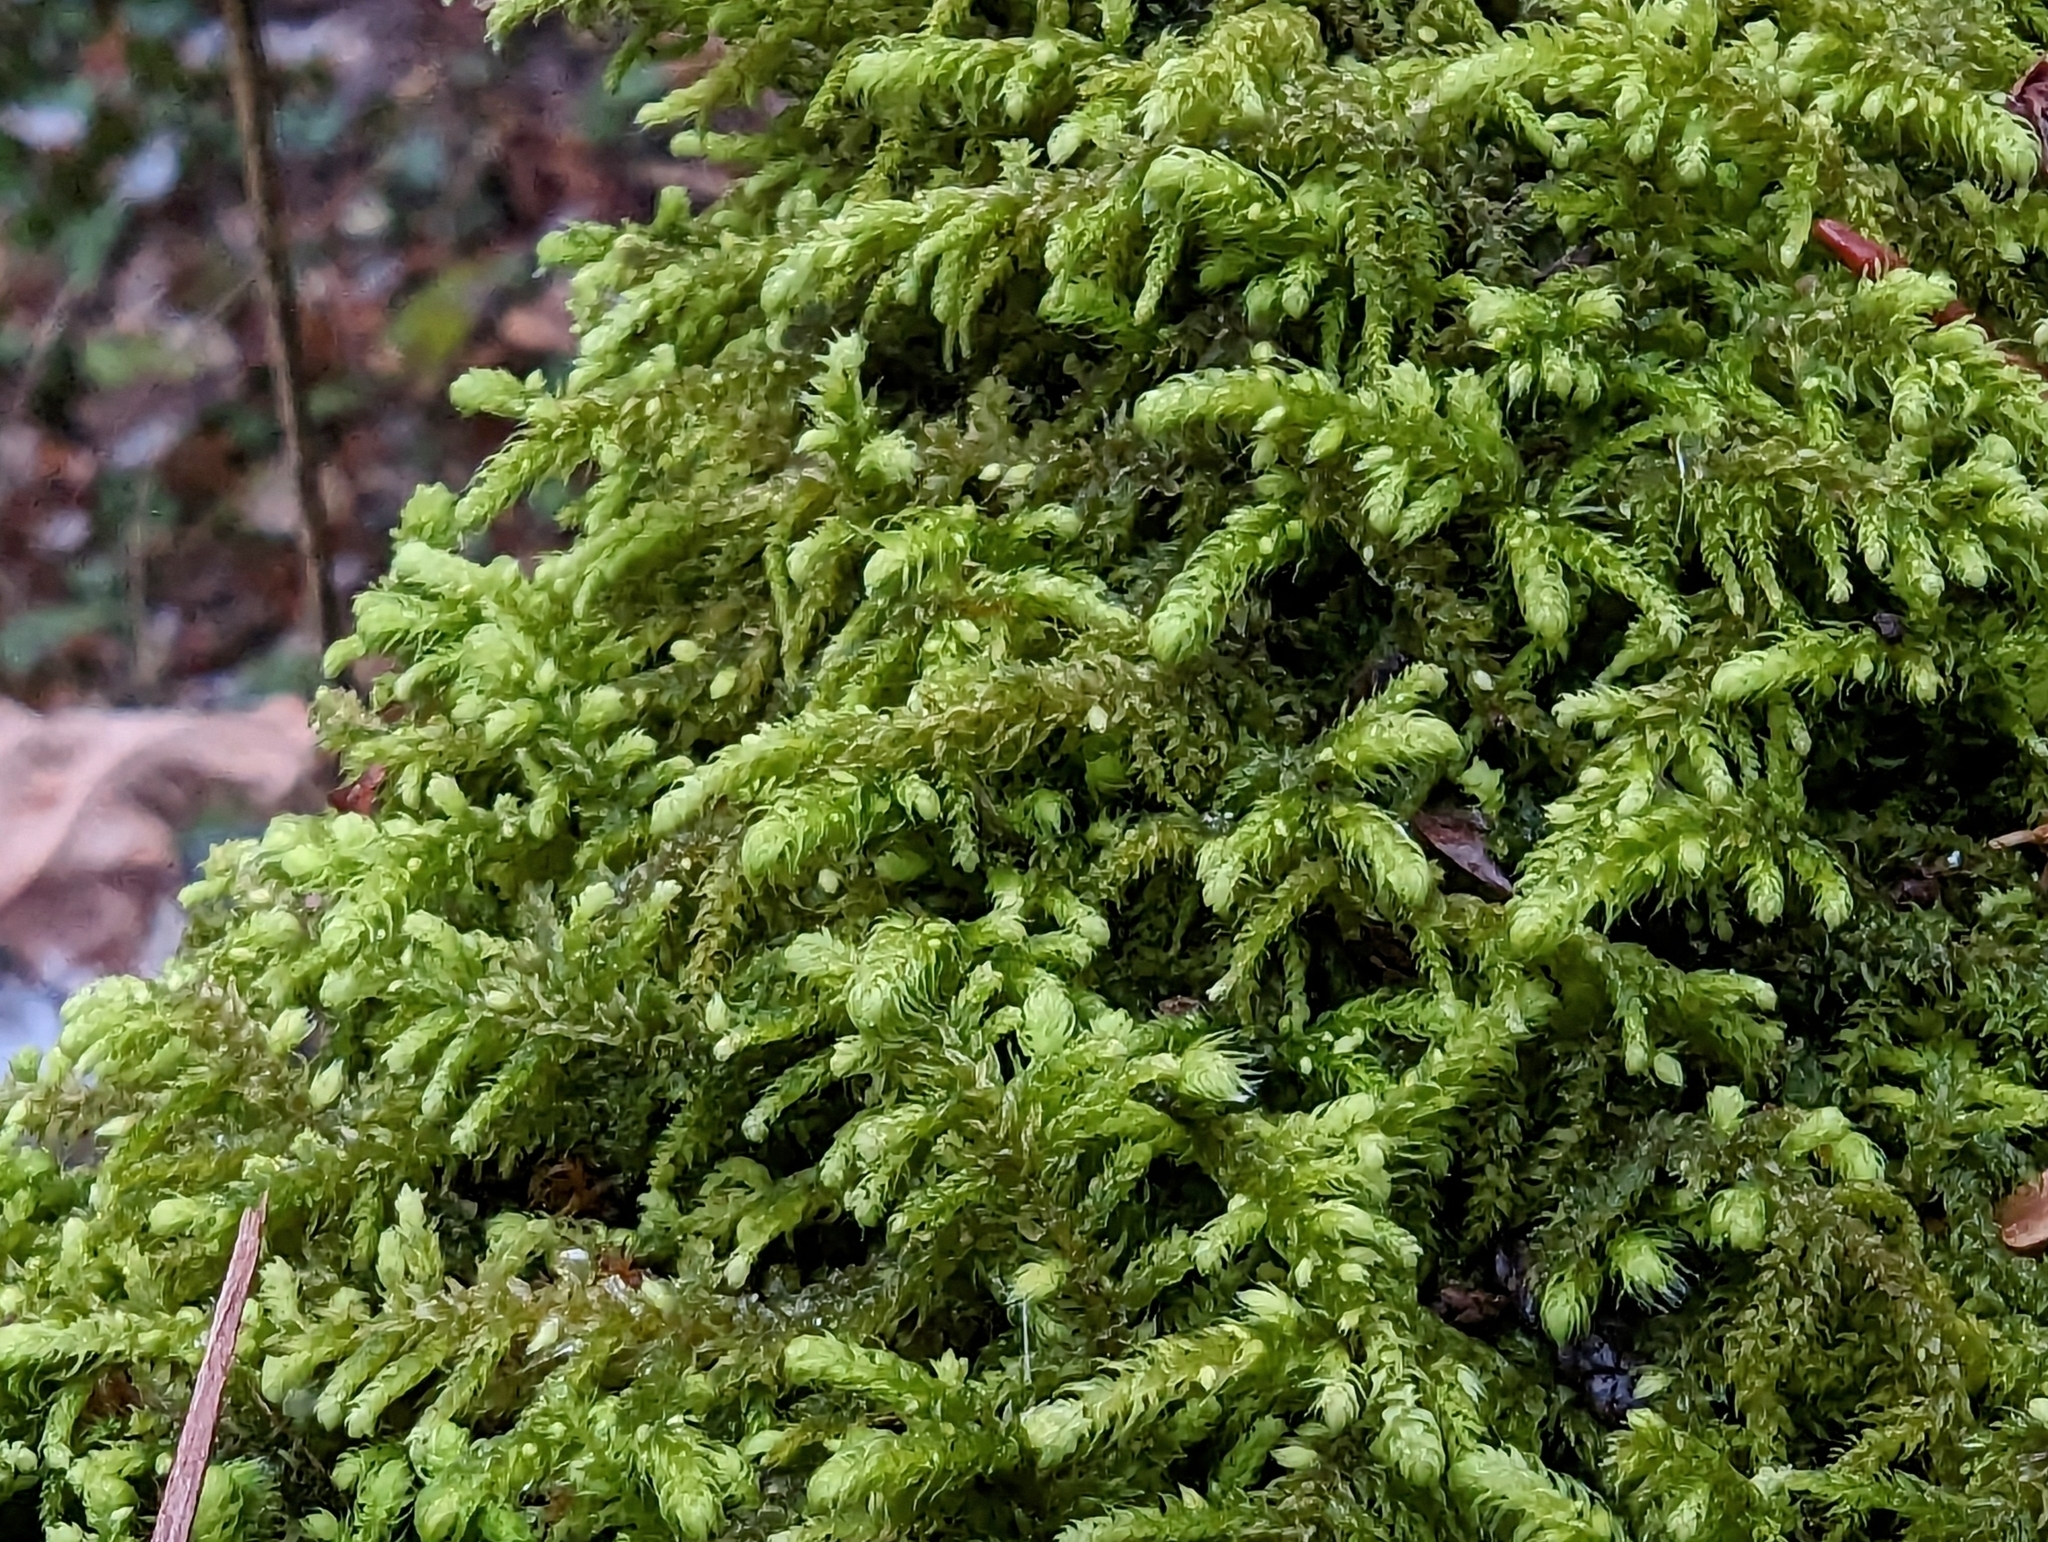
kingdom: Plantae
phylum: Bryophyta
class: Bryopsida
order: Hypnales
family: Brachytheciaceae
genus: Claopodium
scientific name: Claopodium crispifolium
